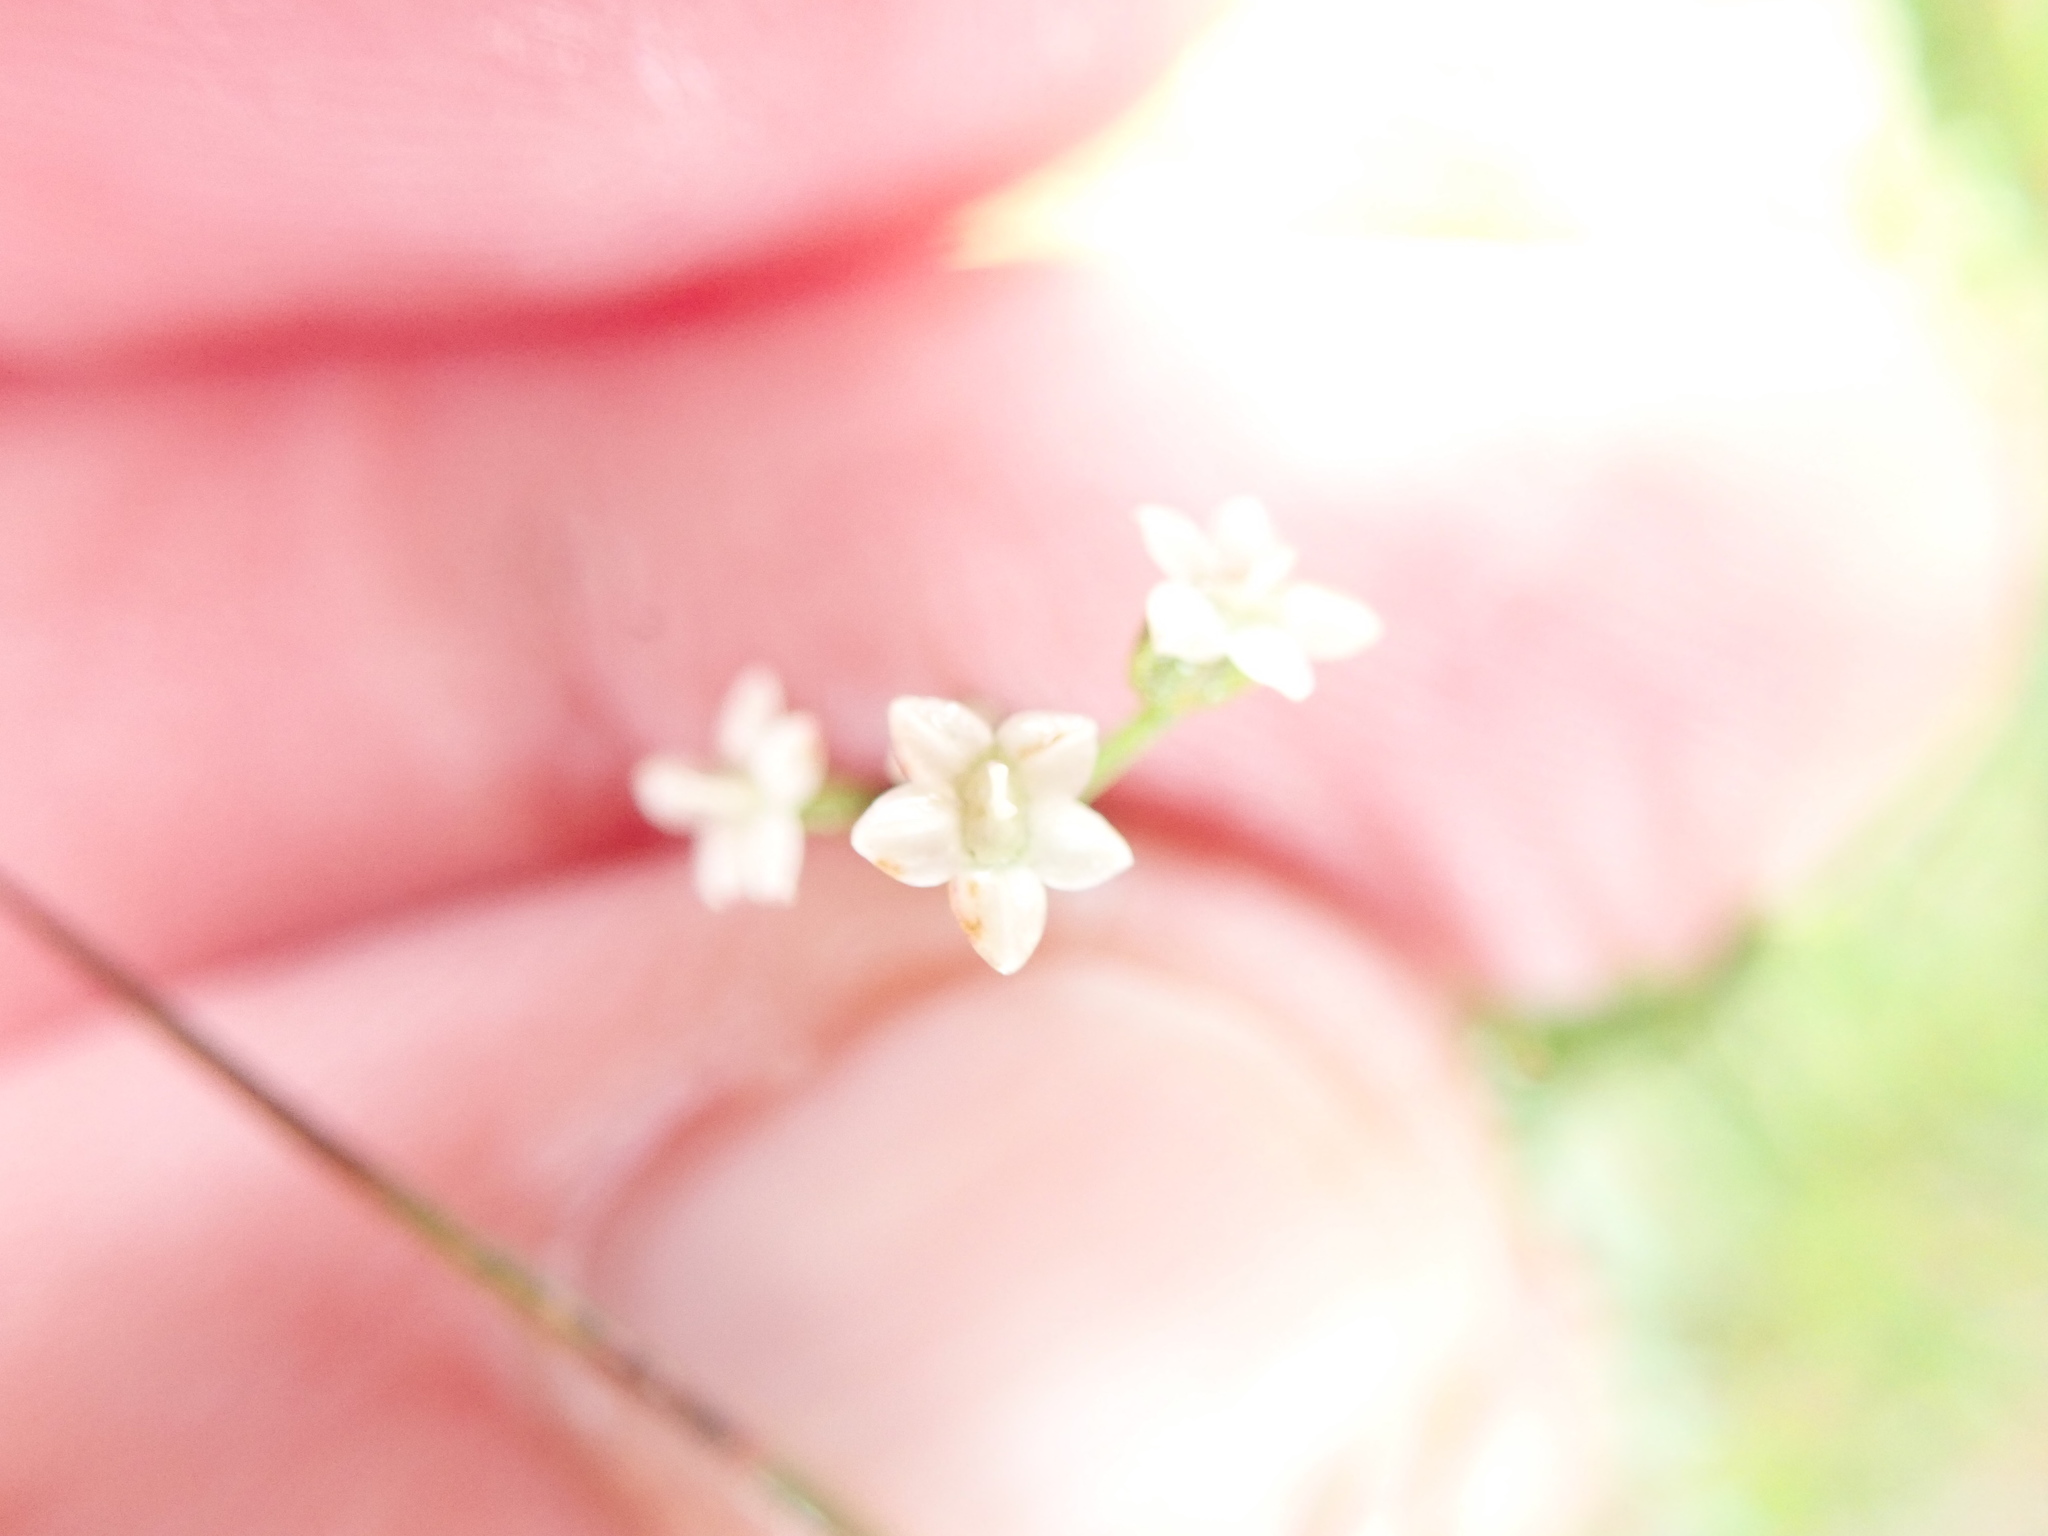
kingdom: Plantae
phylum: Tracheophyta
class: Magnoliopsida
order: Apiales
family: Apiaceae
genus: Platysace
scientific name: Platysace linearifolia
